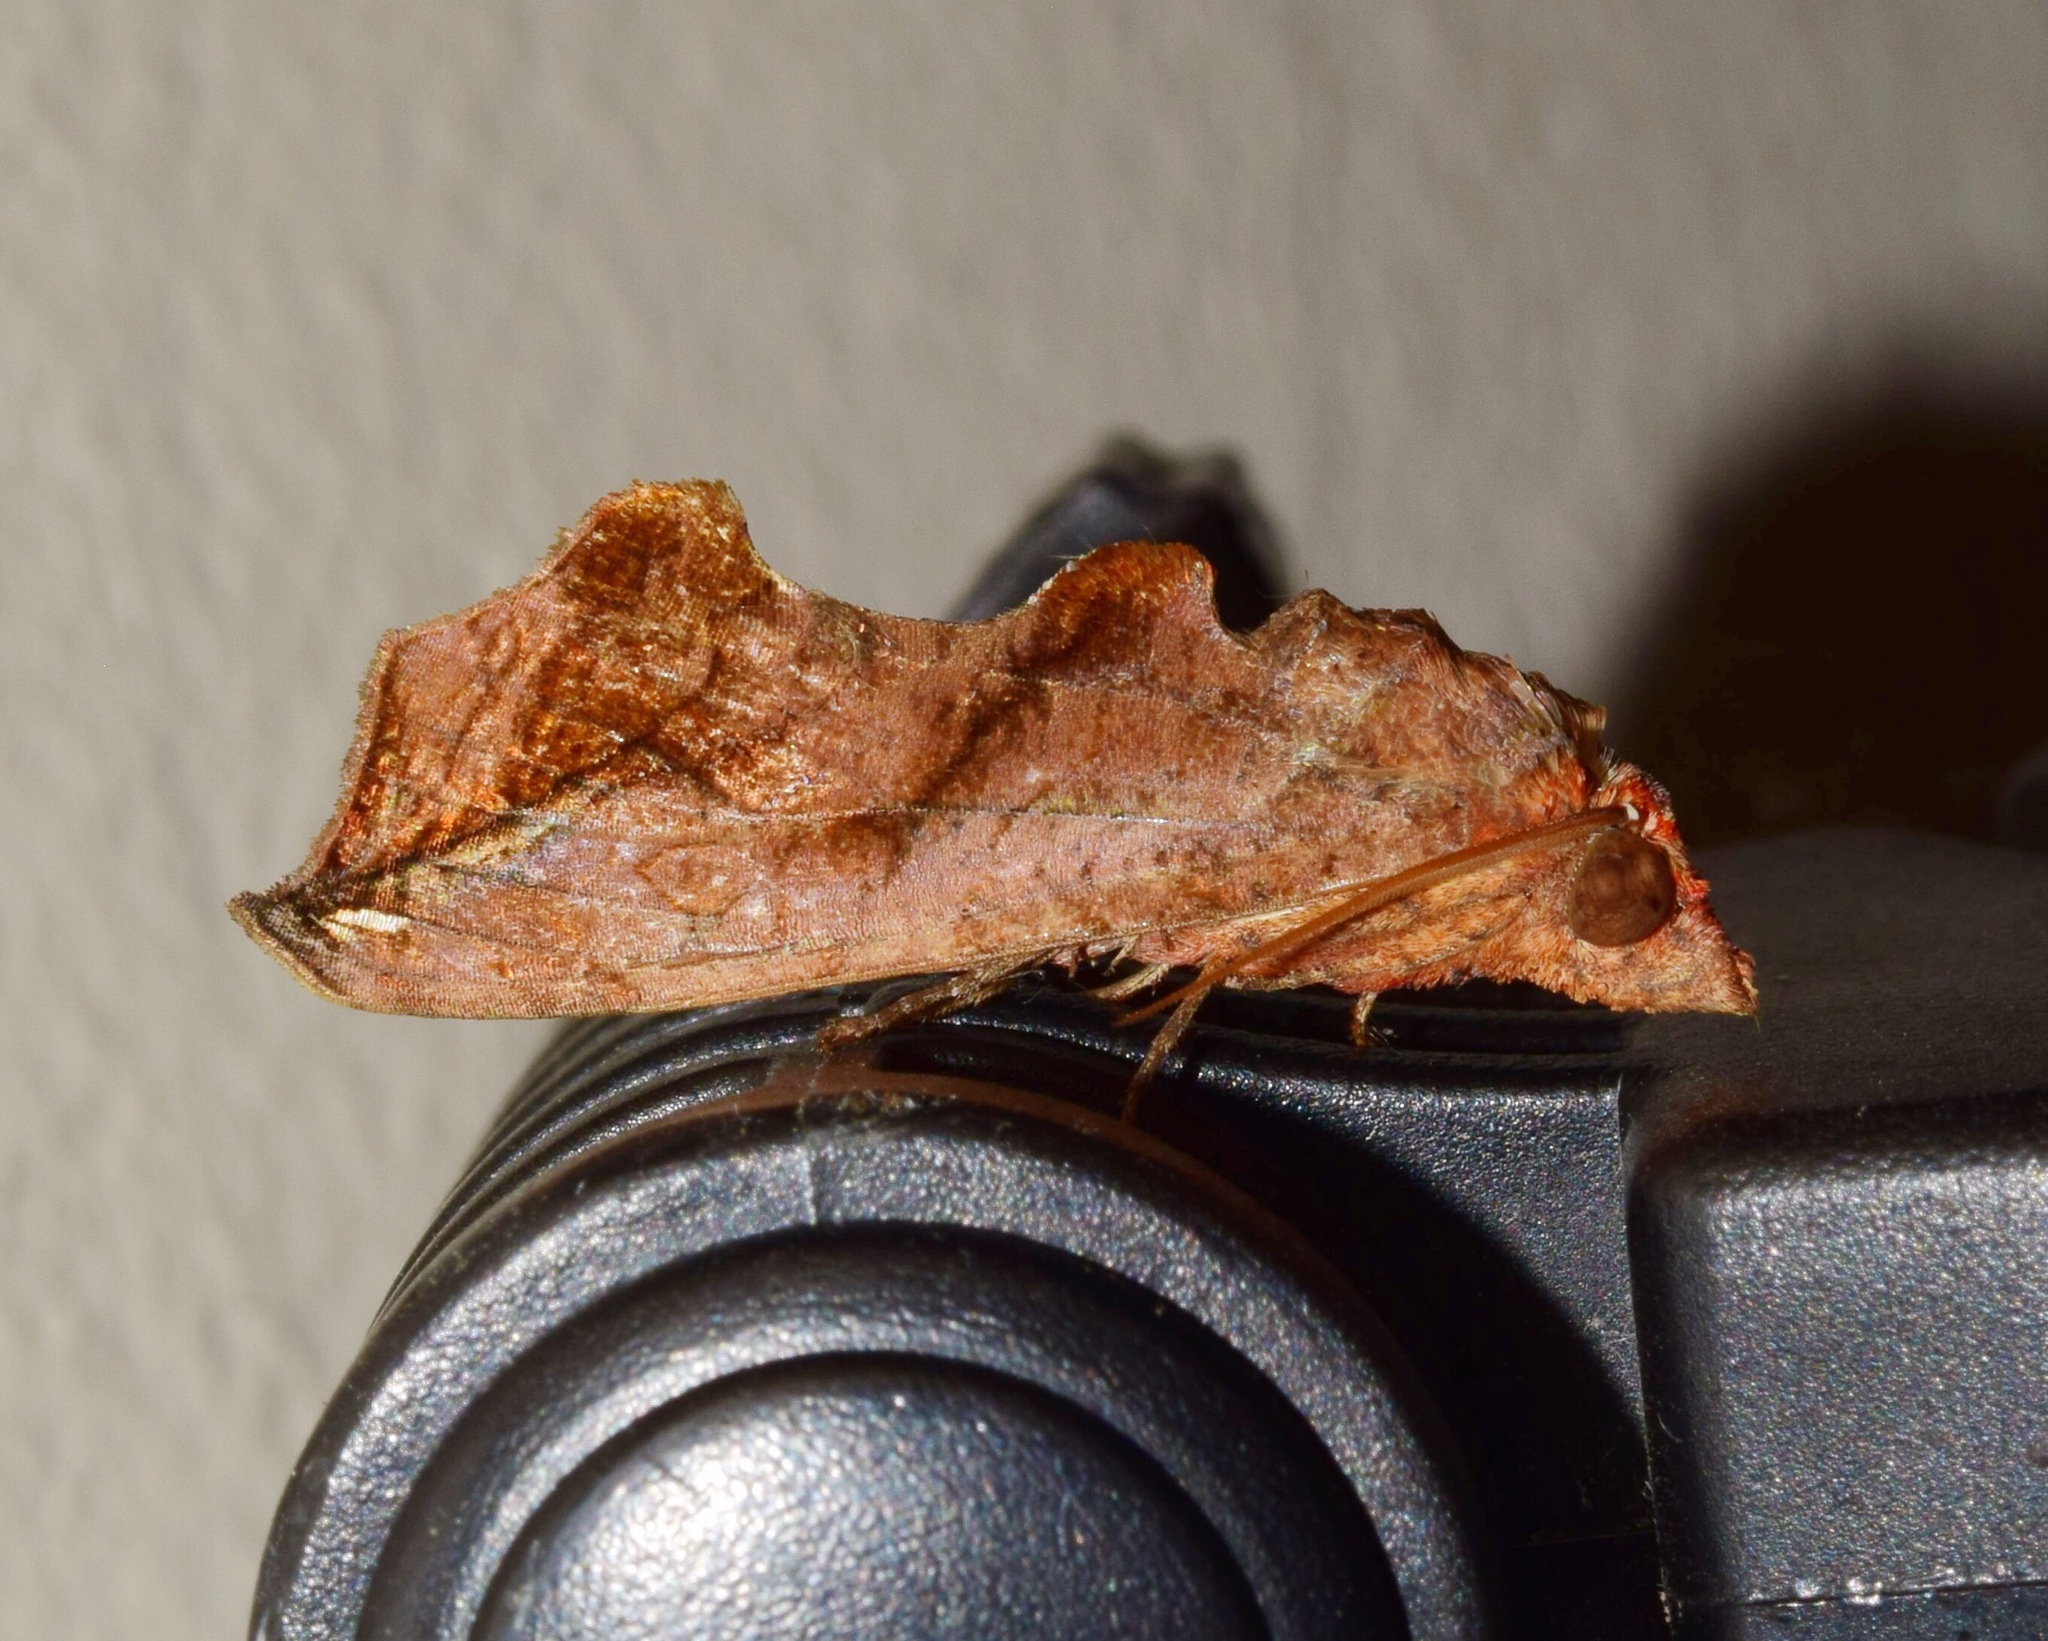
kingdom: Animalia
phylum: Arthropoda
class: Insecta
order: Lepidoptera
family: Erebidae
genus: Oraesia
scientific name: Oraesia provocans
